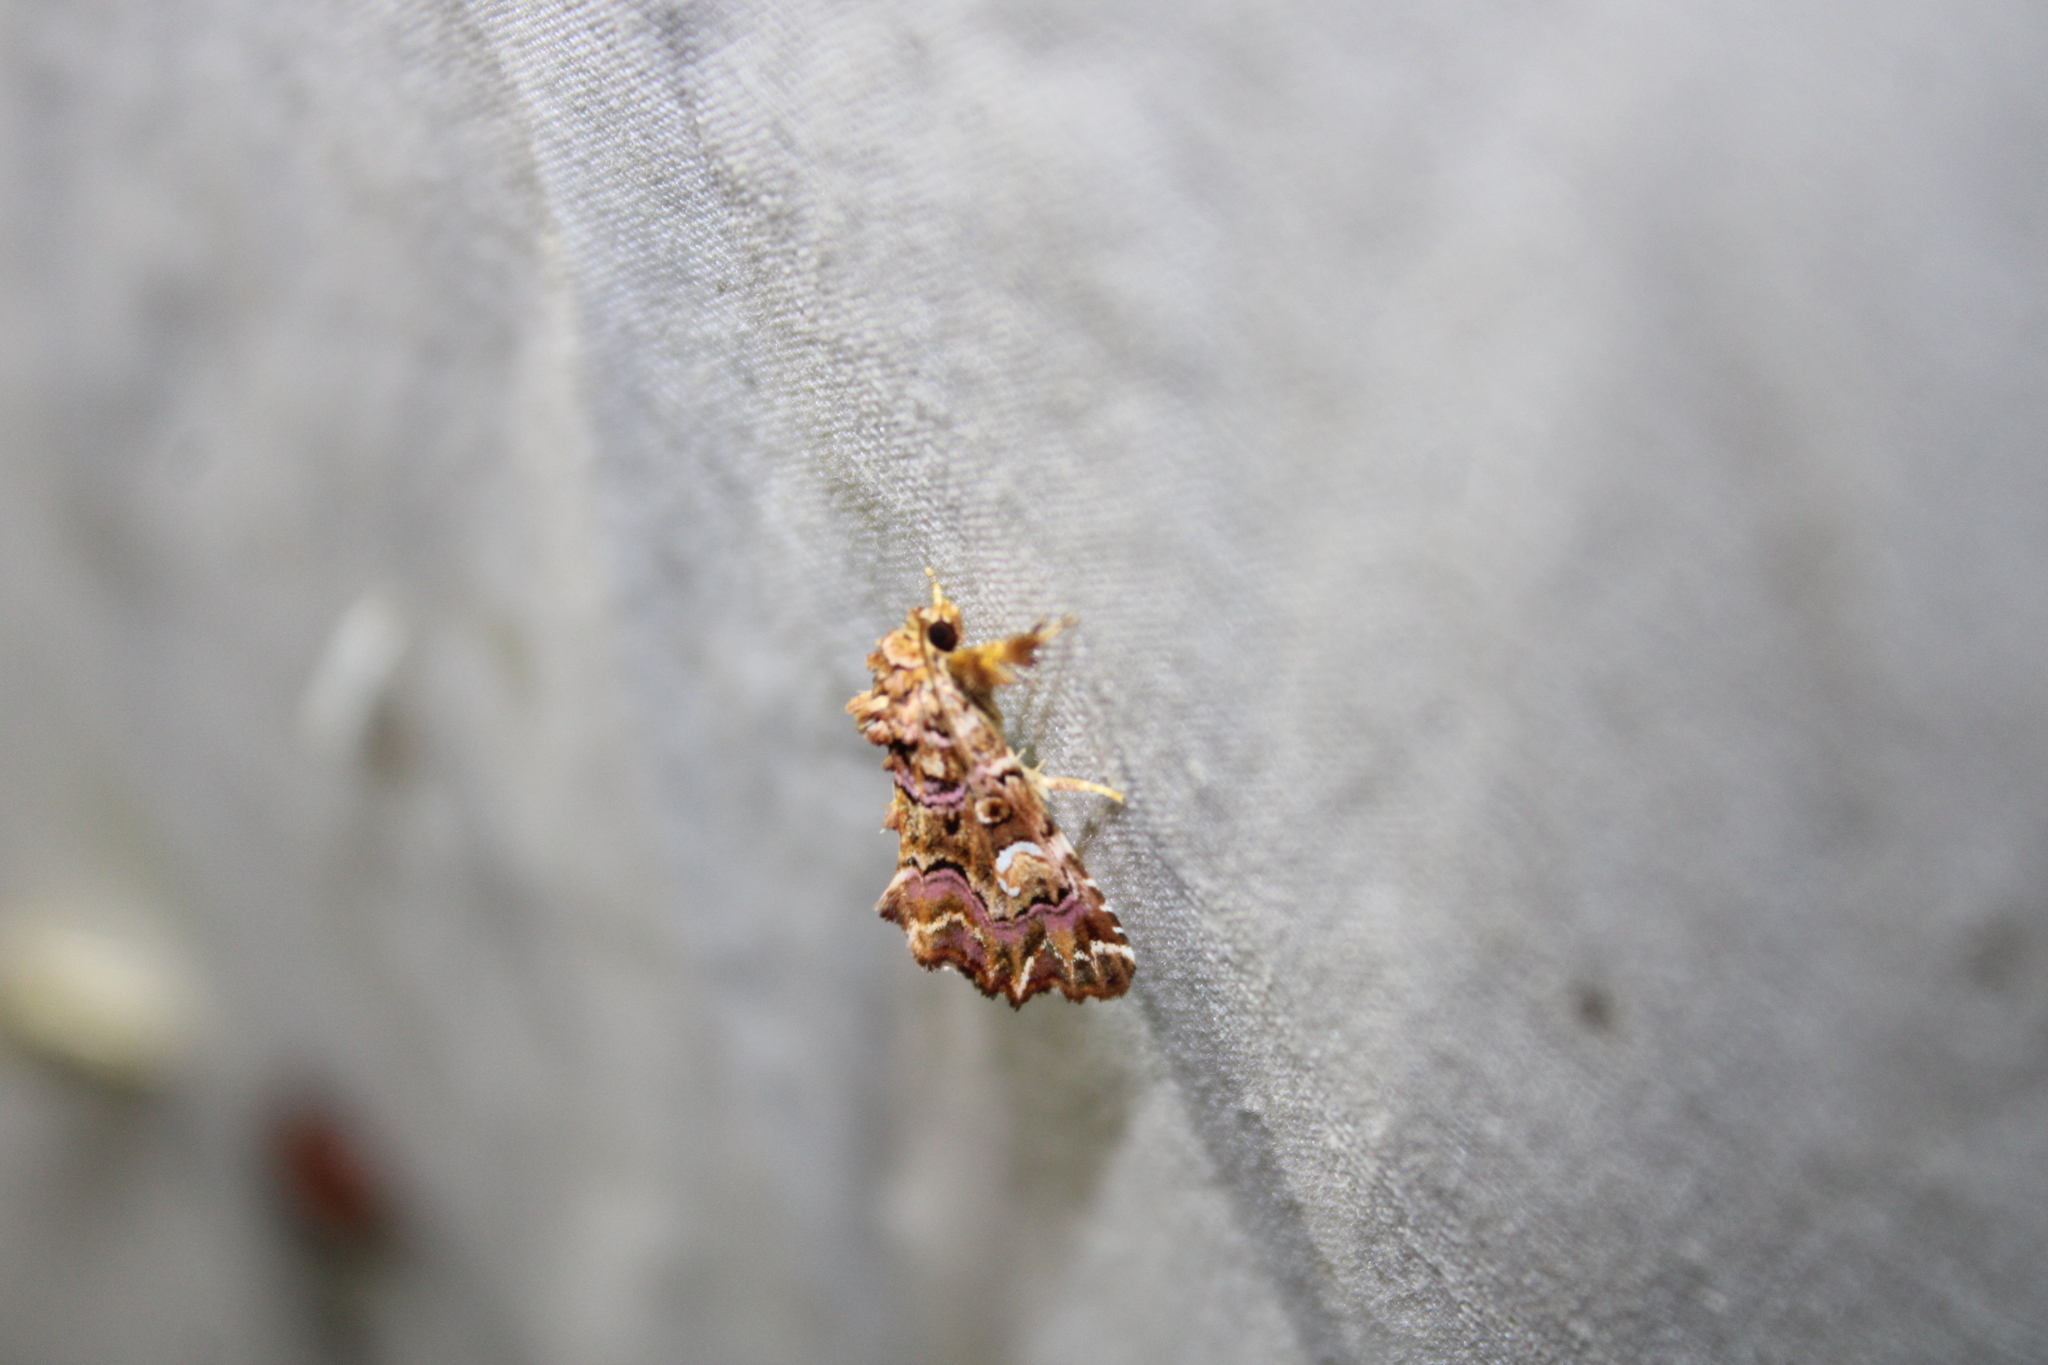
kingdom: Animalia
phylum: Arthropoda
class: Insecta
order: Lepidoptera
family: Noctuidae
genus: Callopistria
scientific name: Callopistria mollissima
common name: Pink-shaded fern moth
